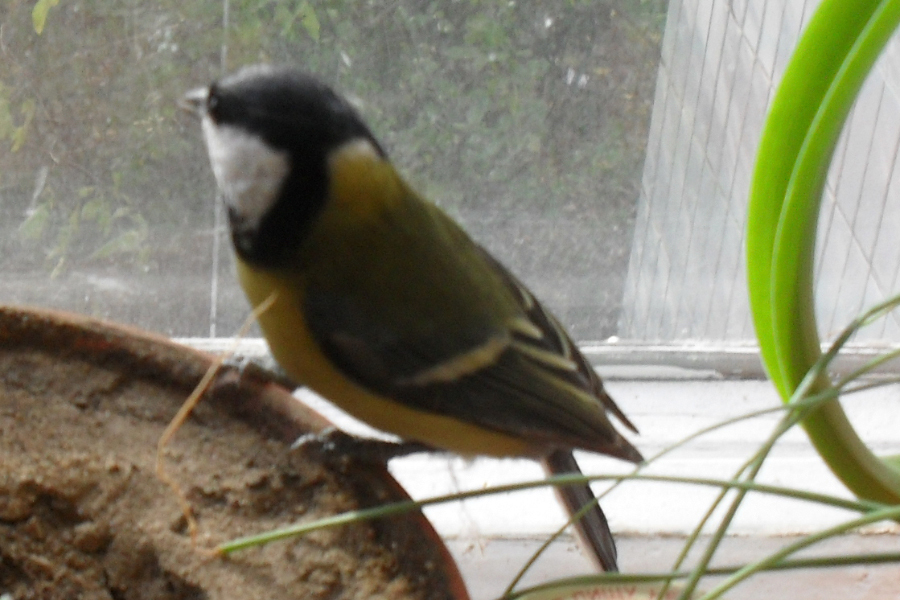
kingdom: Animalia
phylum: Chordata
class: Aves
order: Passeriformes
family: Paridae
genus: Parus
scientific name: Parus major
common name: Great tit
